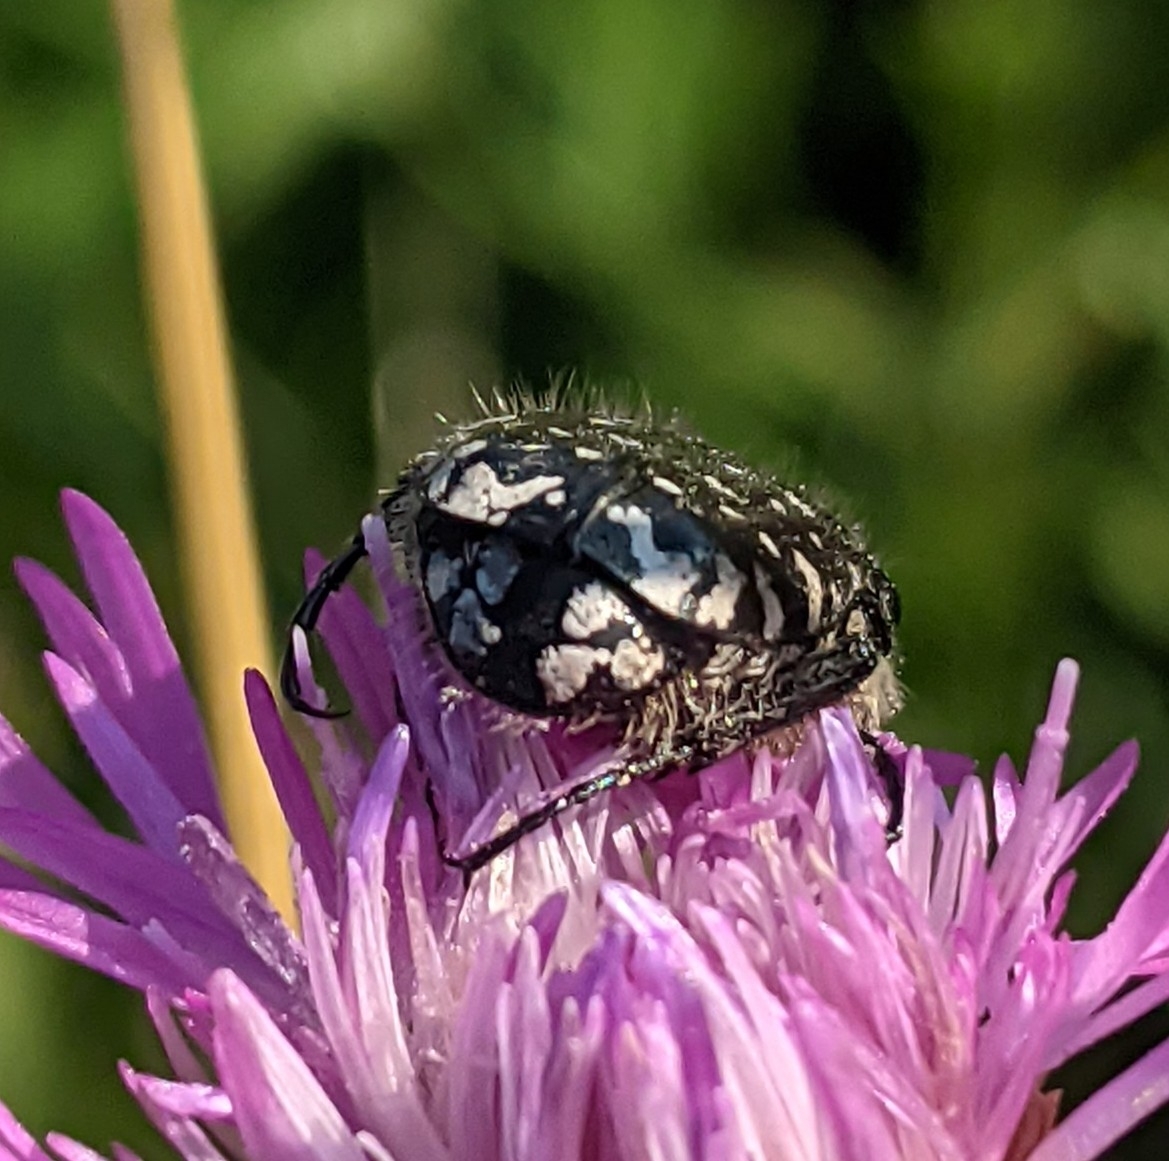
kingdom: Animalia
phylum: Arthropoda
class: Insecta
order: Coleoptera
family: Scarabaeidae
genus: Oxythyrea
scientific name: Oxythyrea funesta
